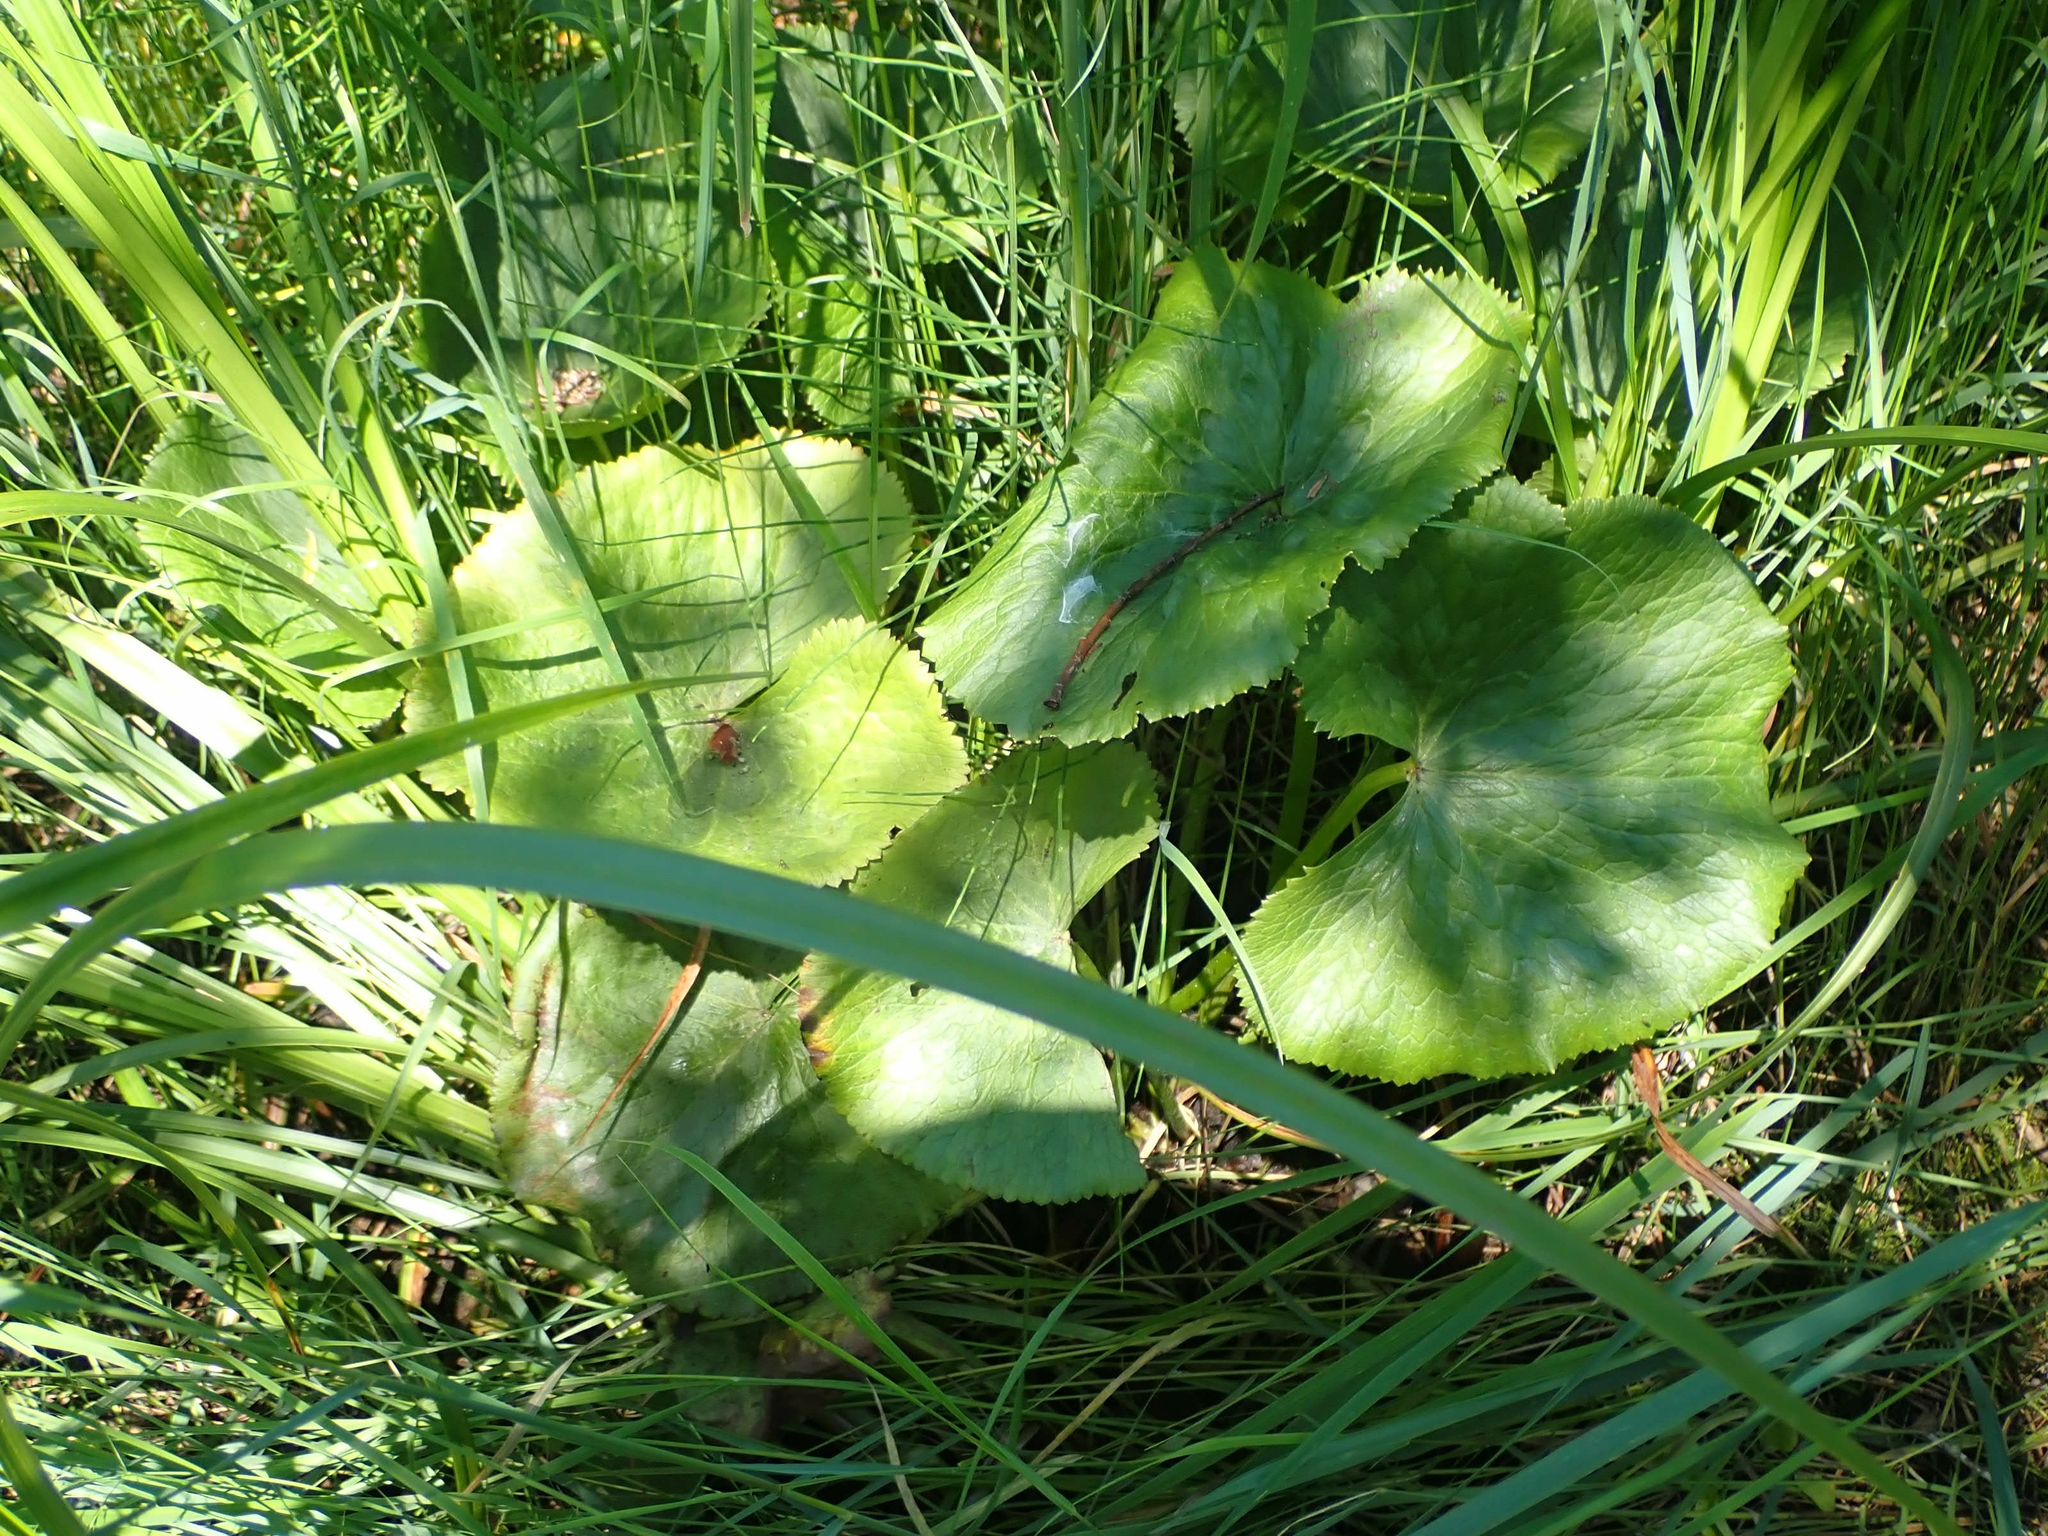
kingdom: Plantae
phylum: Tracheophyta
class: Magnoliopsida
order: Ranunculales
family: Ranunculaceae
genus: Caltha
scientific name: Caltha palustris
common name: Marsh marigold
